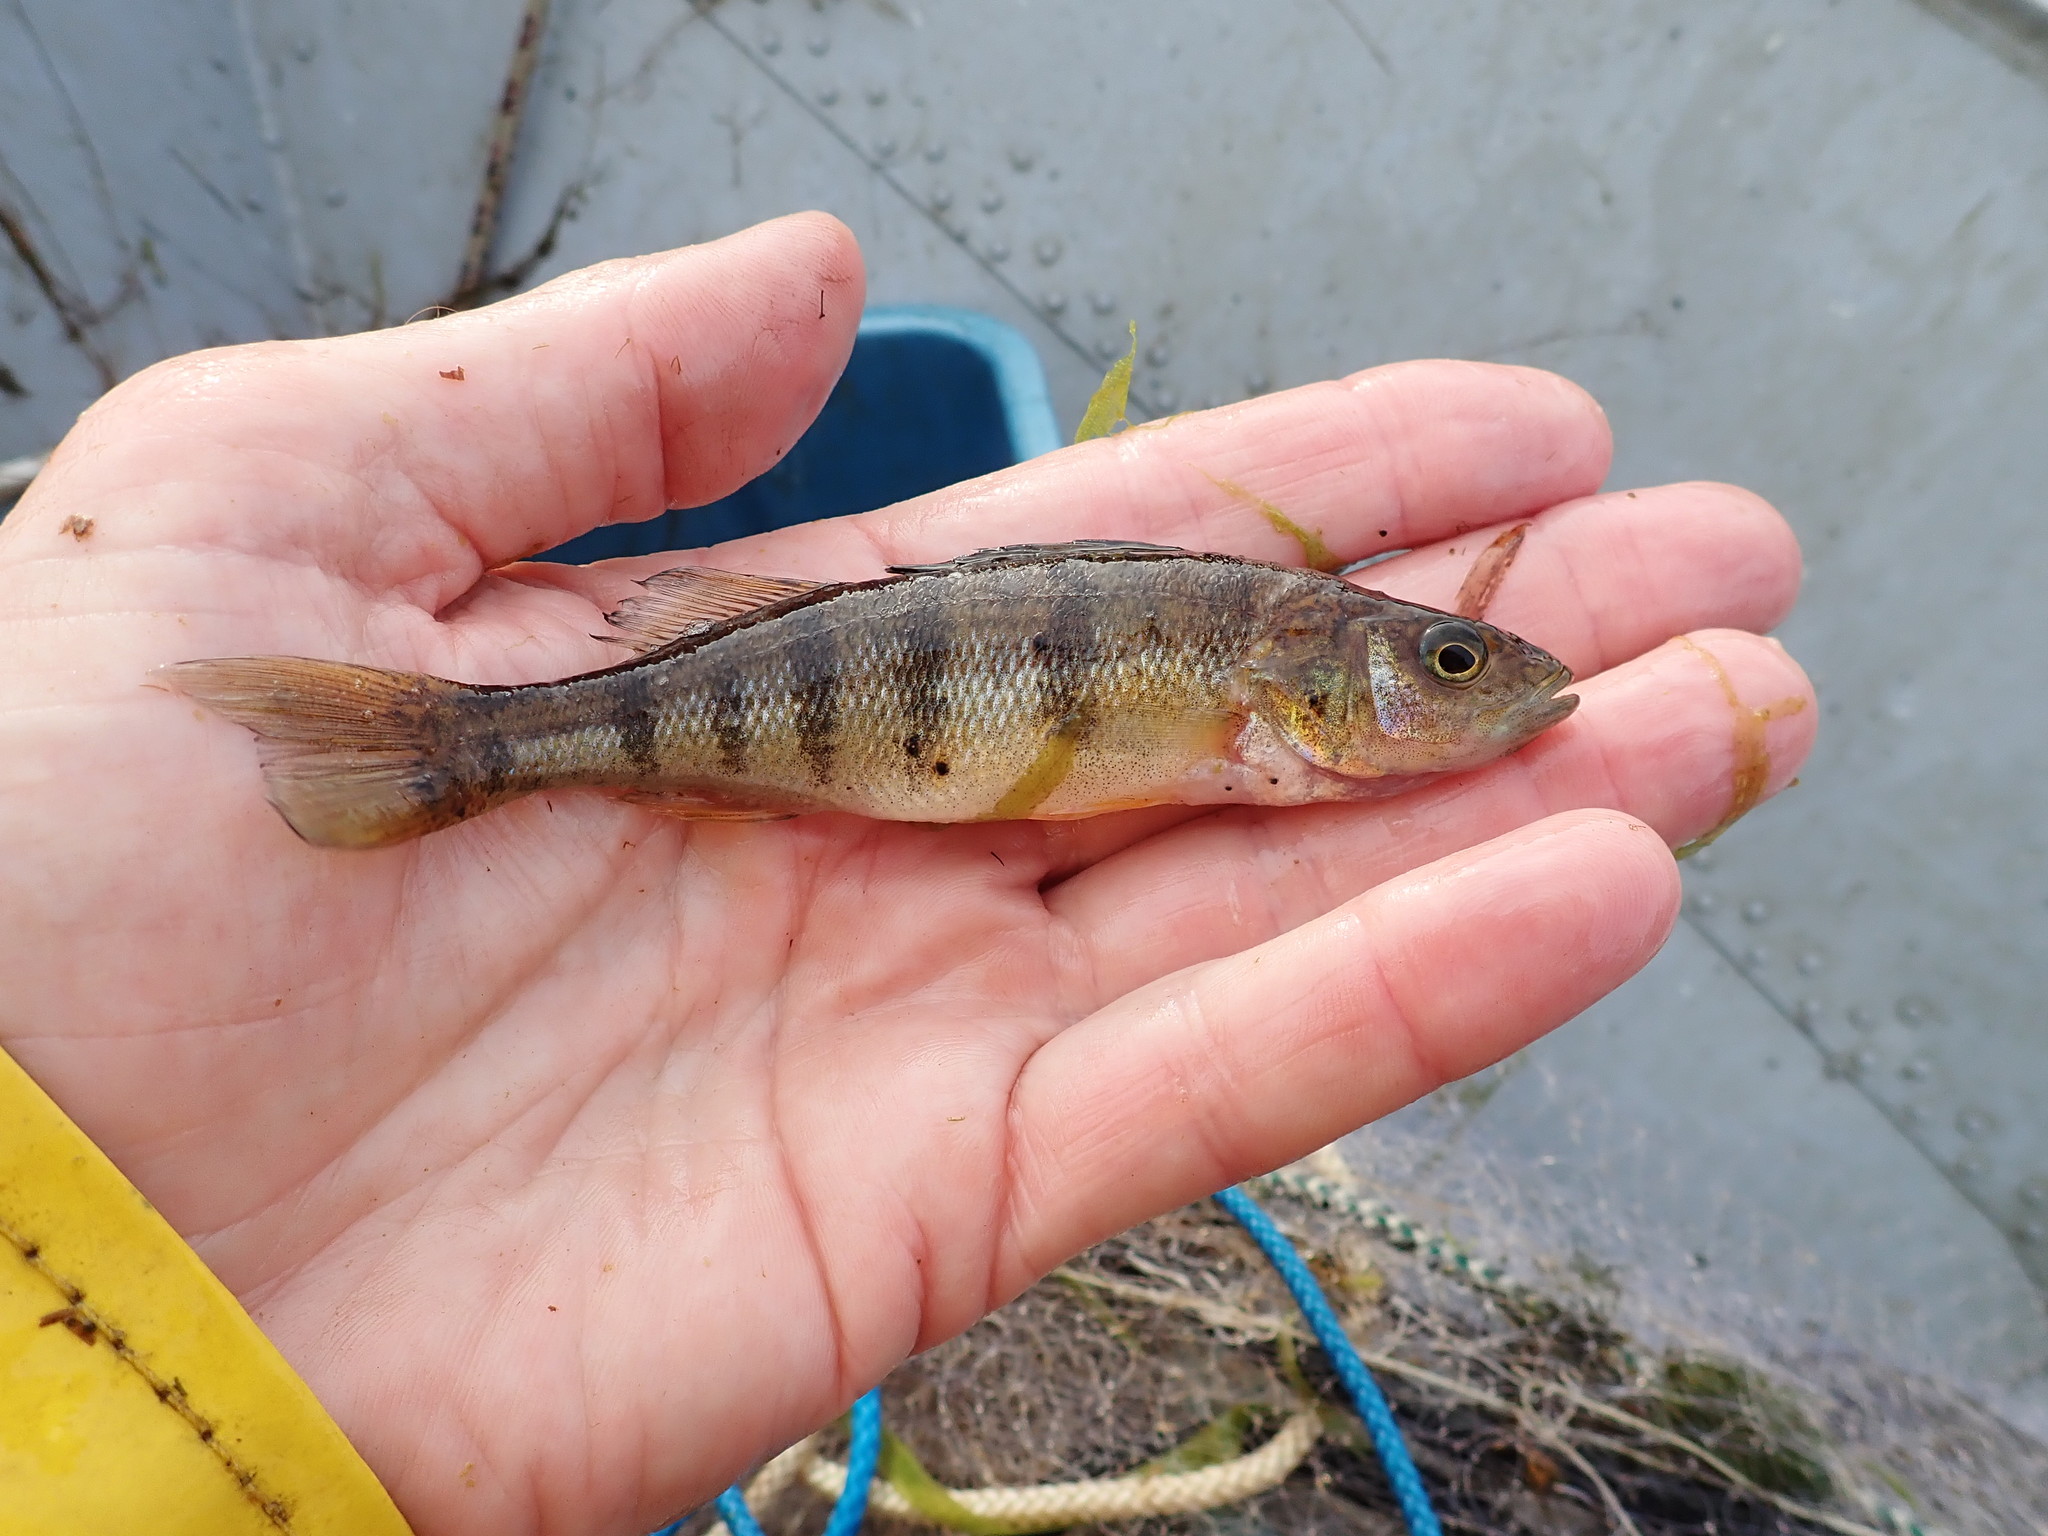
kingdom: Animalia
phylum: Chordata
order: Perciformes
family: Percidae
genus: Perca
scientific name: Perca flavescens
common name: Yellow perch
